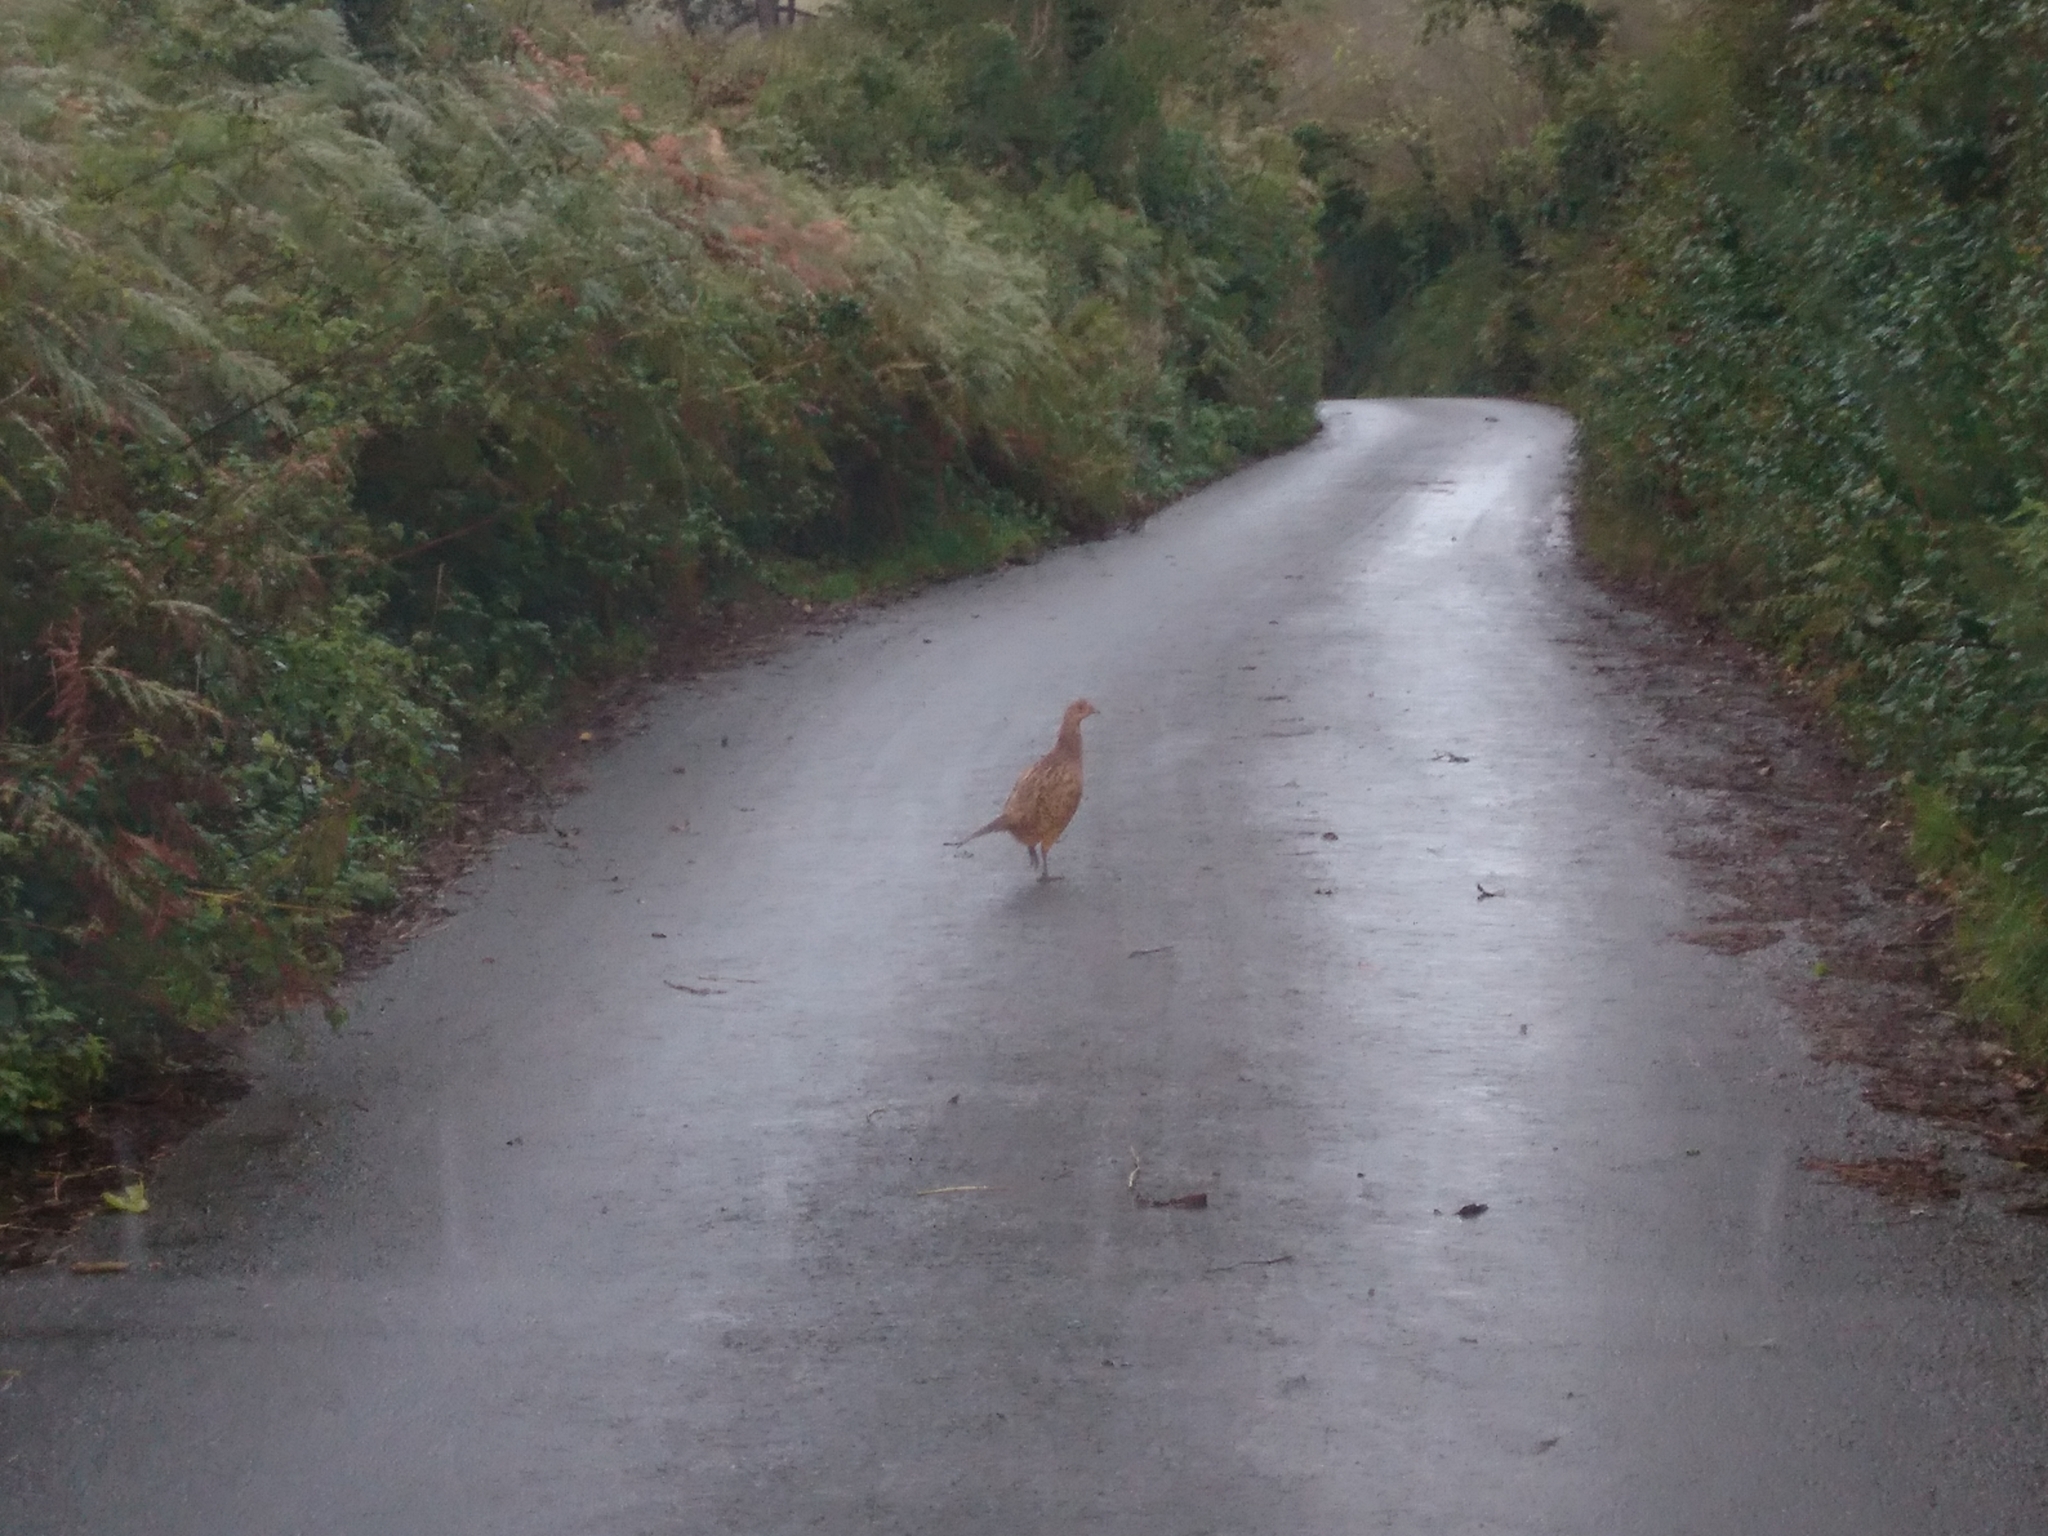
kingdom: Animalia
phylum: Chordata
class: Aves
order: Galliformes
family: Phasianidae
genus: Phasianus
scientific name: Phasianus colchicus
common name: Common pheasant
